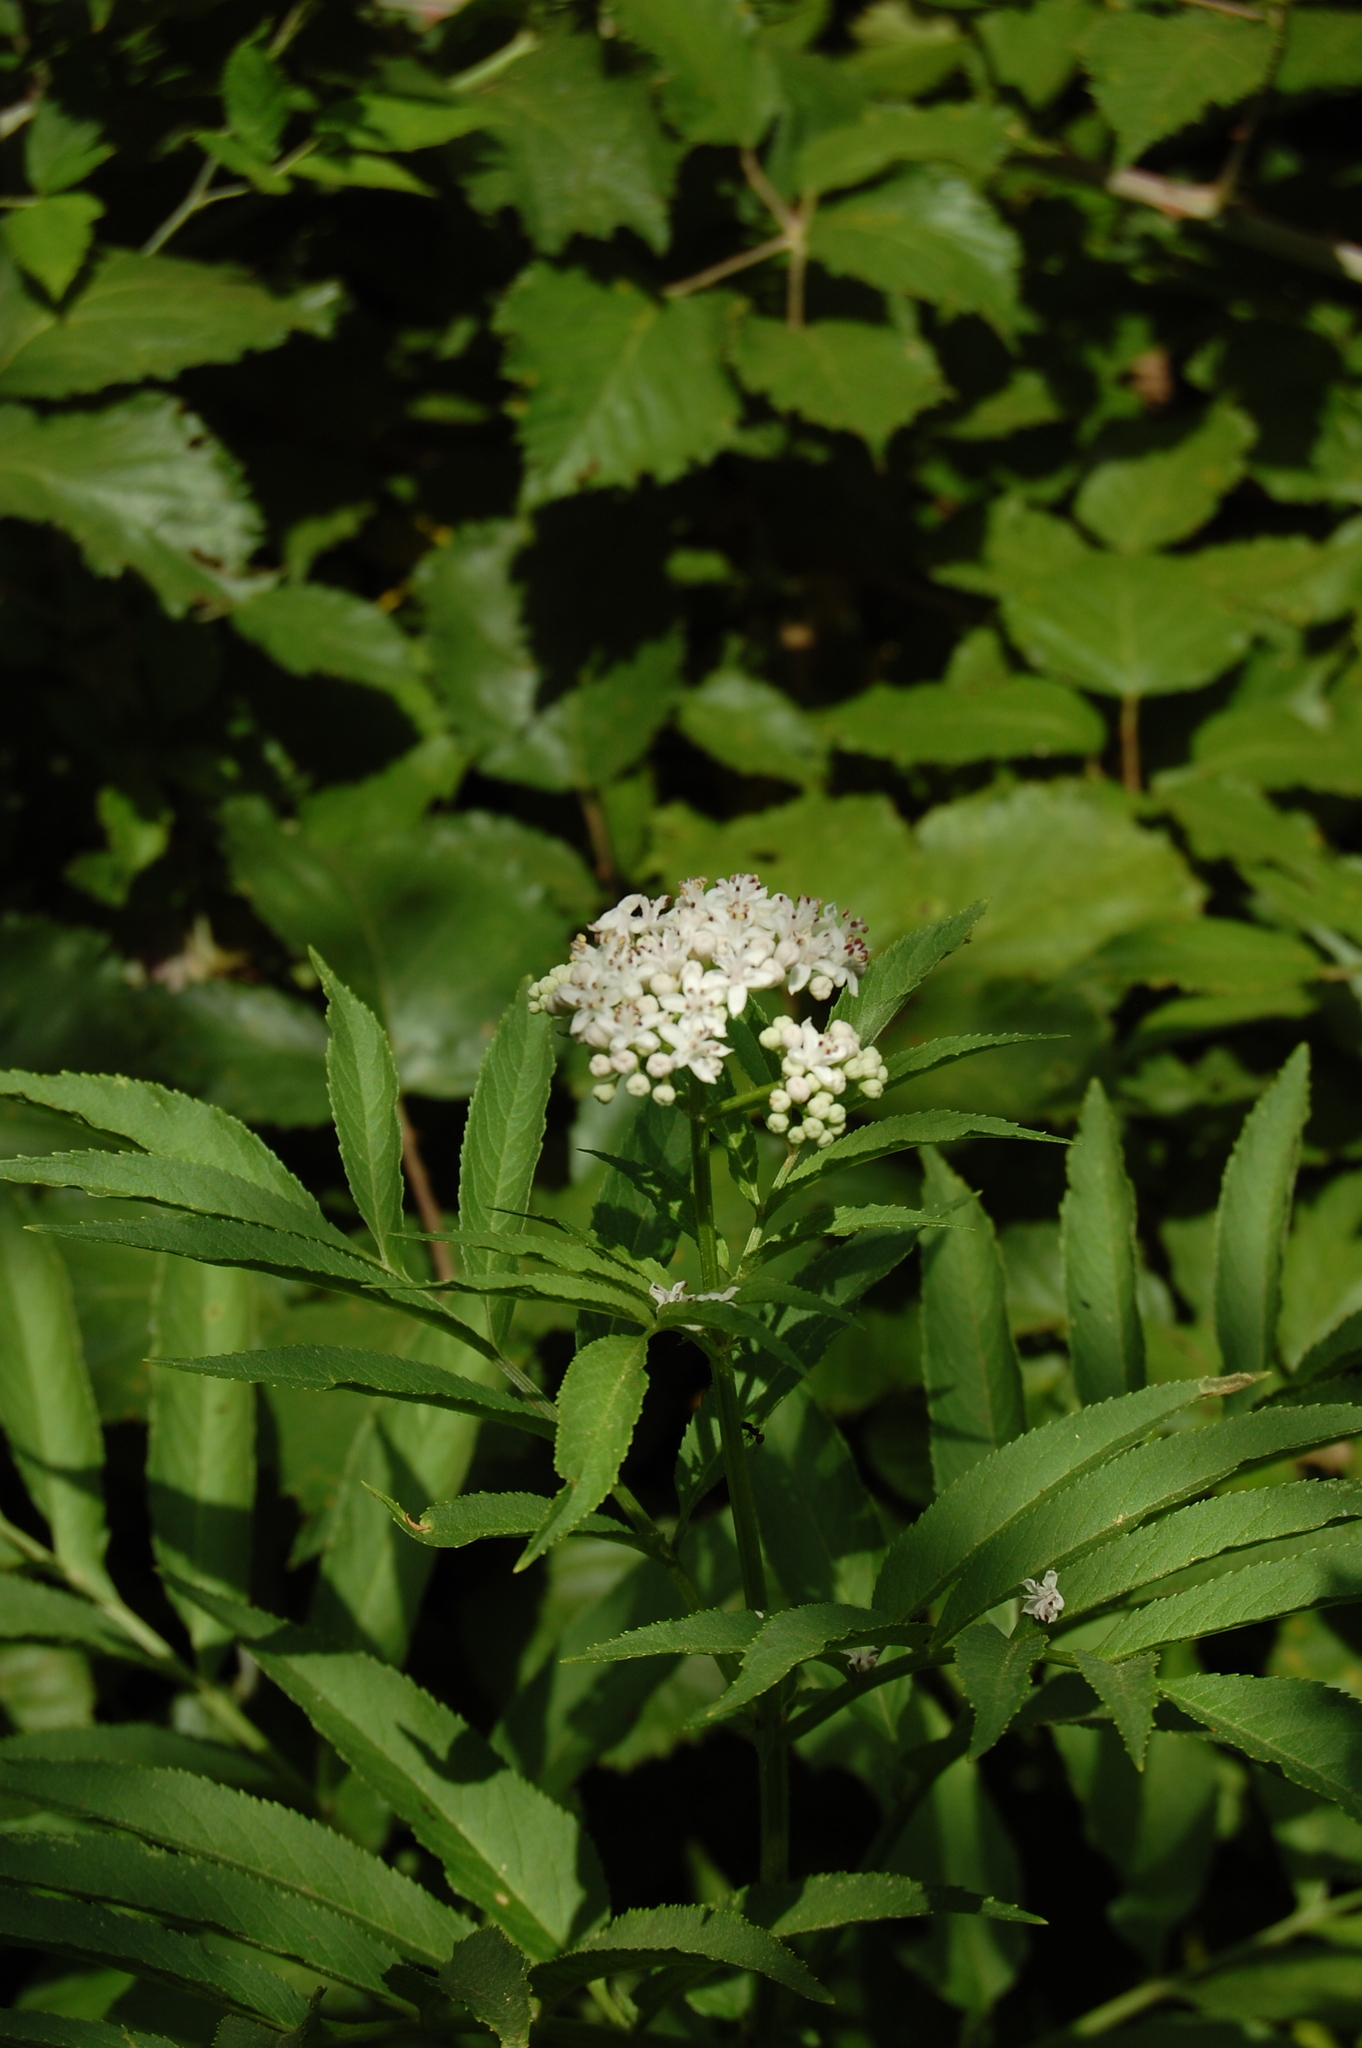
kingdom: Plantae
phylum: Tracheophyta
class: Magnoliopsida
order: Dipsacales
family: Viburnaceae
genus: Sambucus
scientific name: Sambucus ebulus
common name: Dwarf elder
